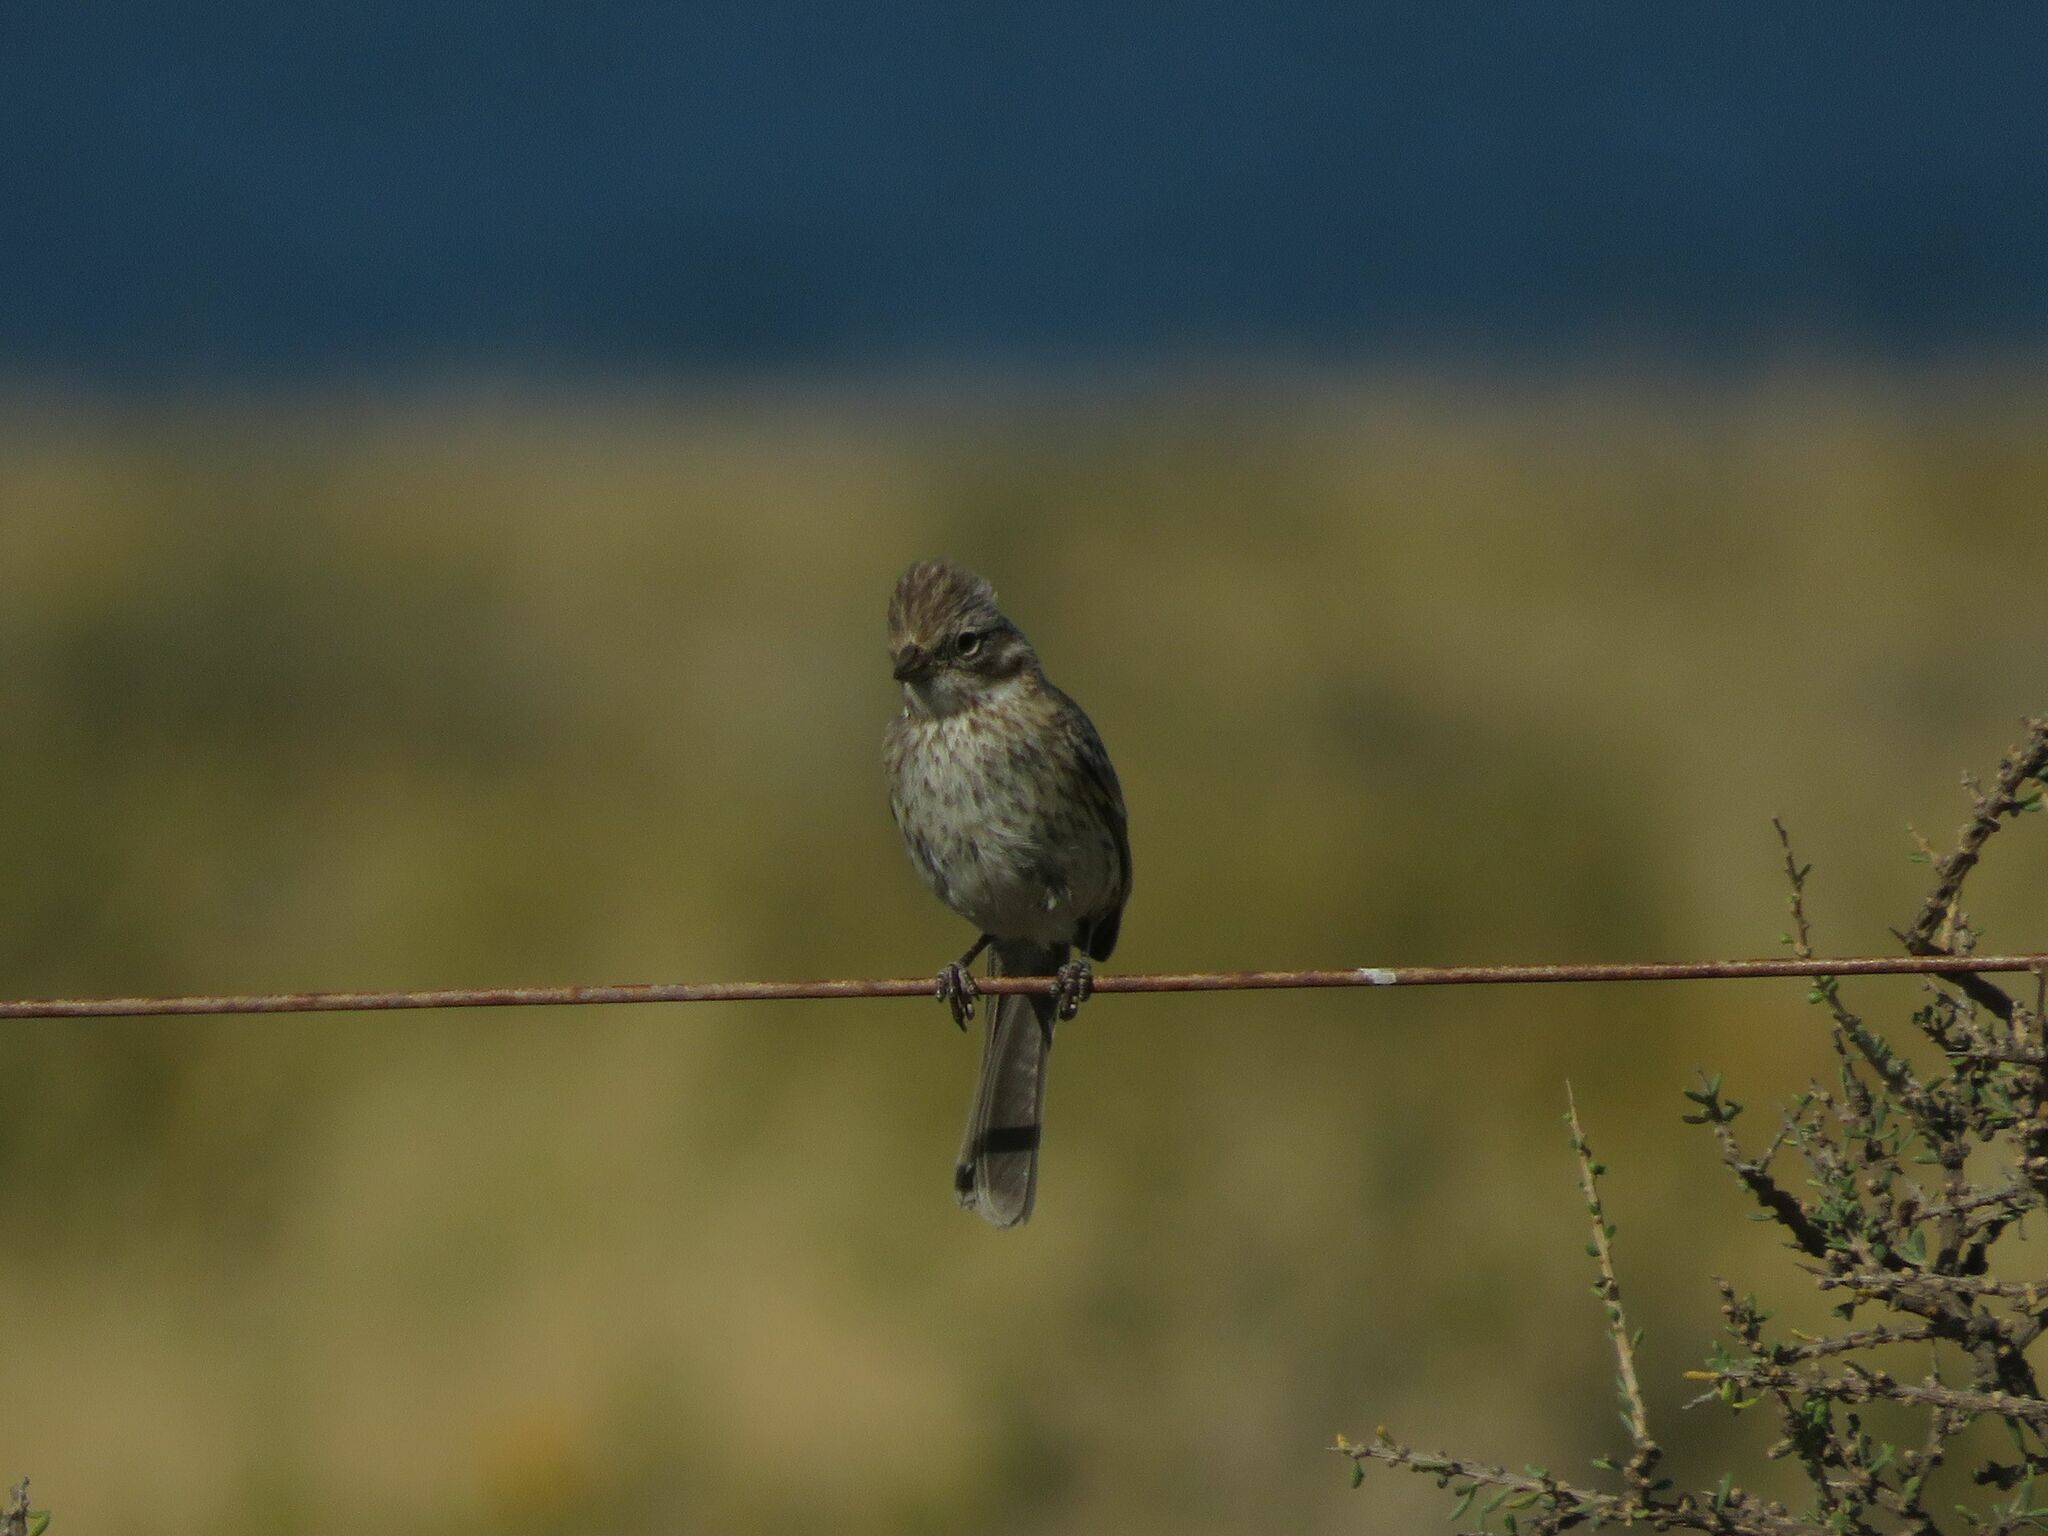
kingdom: Animalia
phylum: Chordata
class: Aves
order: Passeriformes
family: Passerellidae
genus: Zonotrichia
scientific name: Zonotrichia capensis
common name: Rufous-collared sparrow
